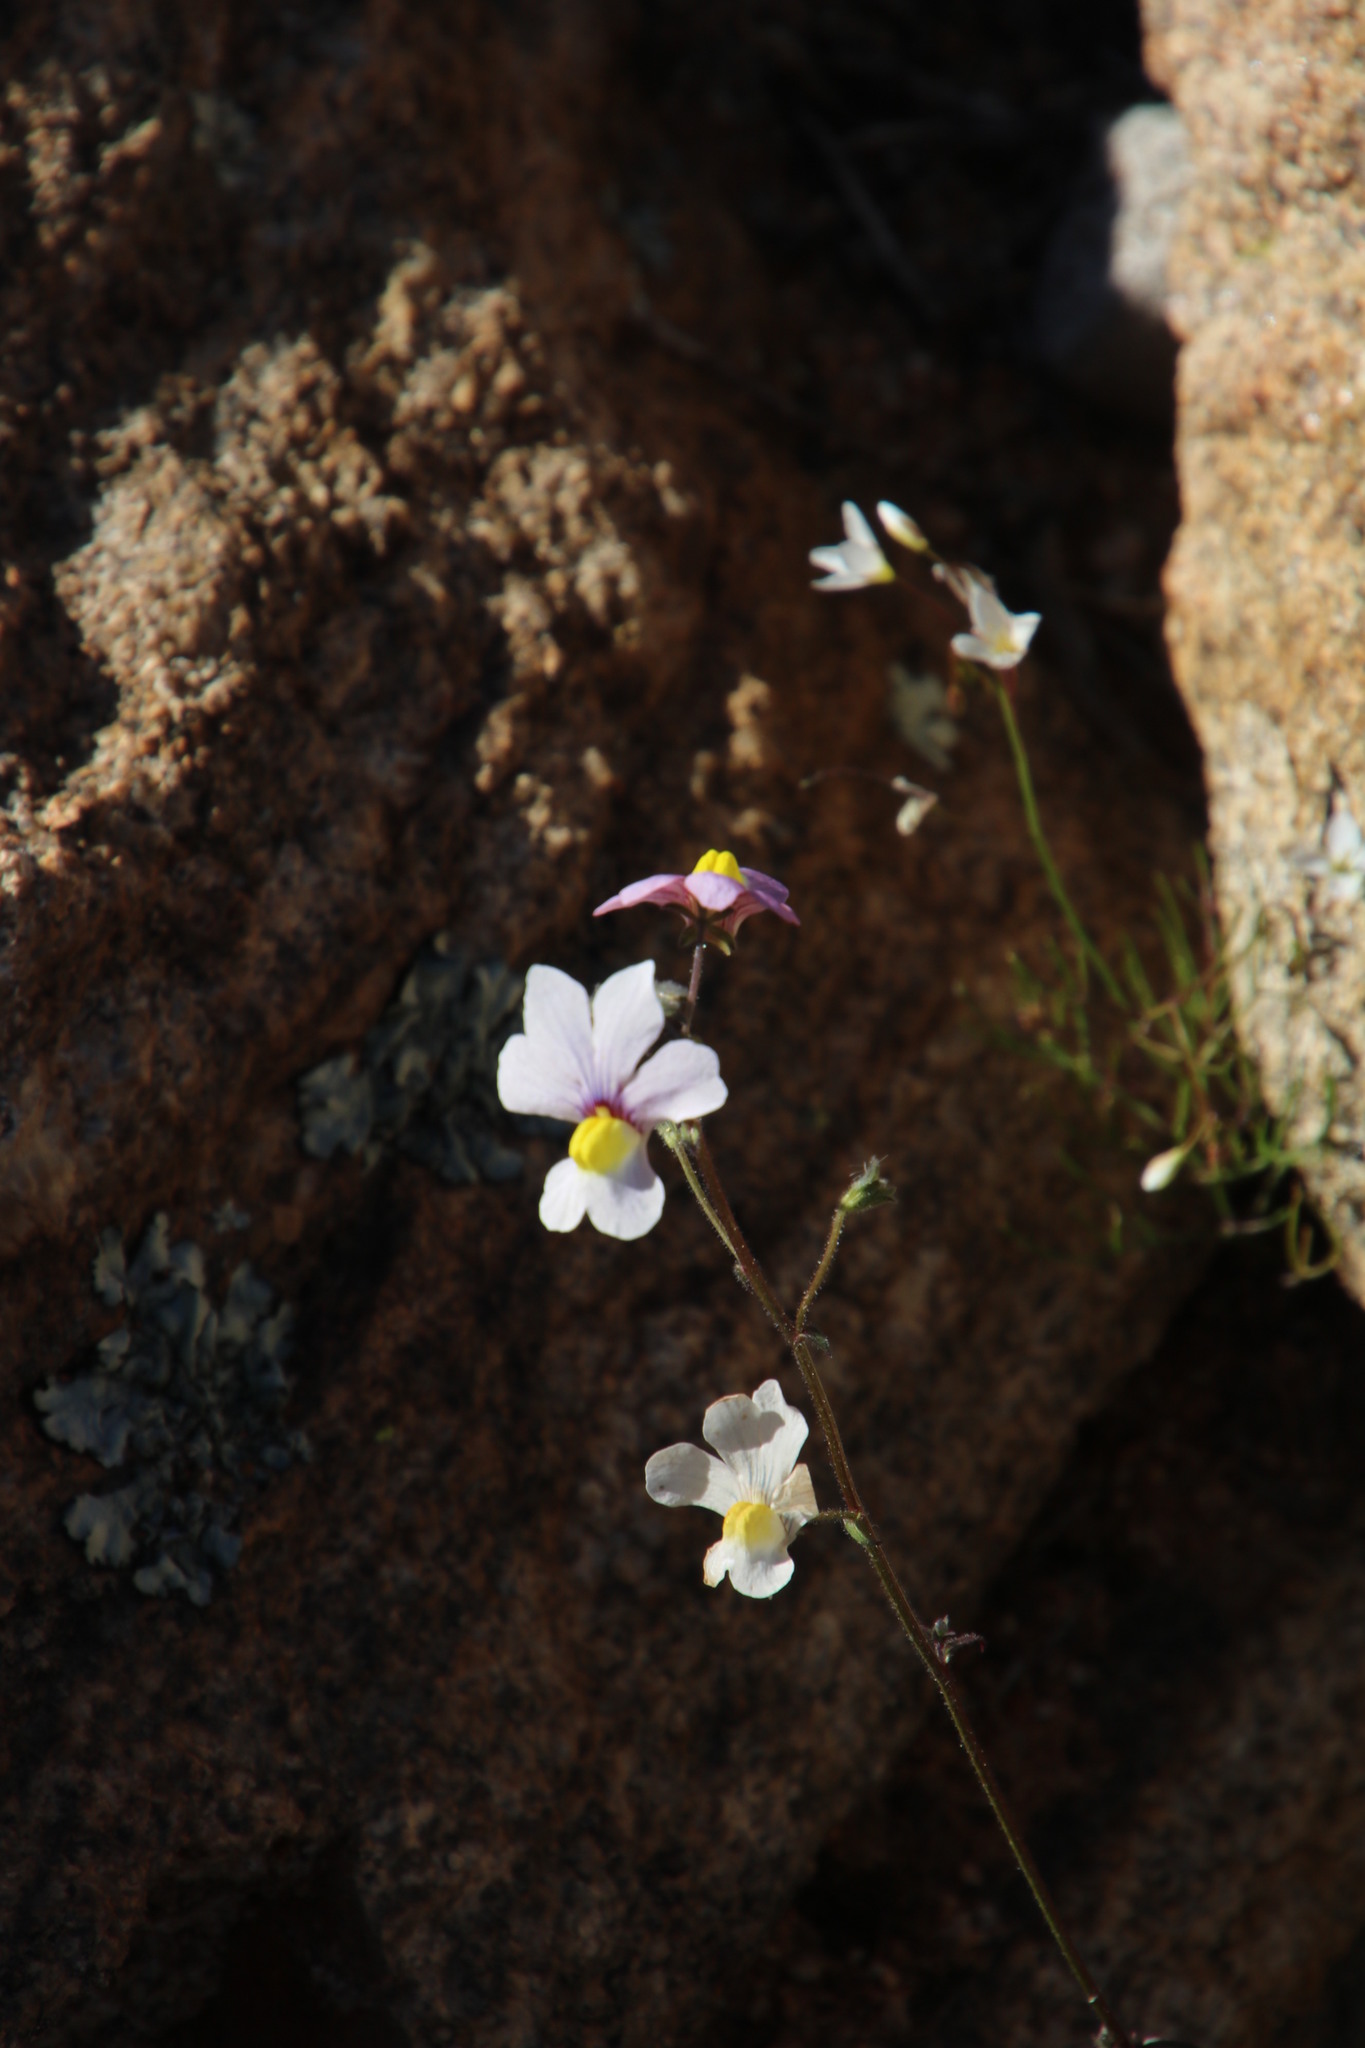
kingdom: Plantae
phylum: Tracheophyta
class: Magnoliopsida
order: Lamiales
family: Scrophulariaceae
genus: Nemesia
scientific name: Nemesia versicolor
